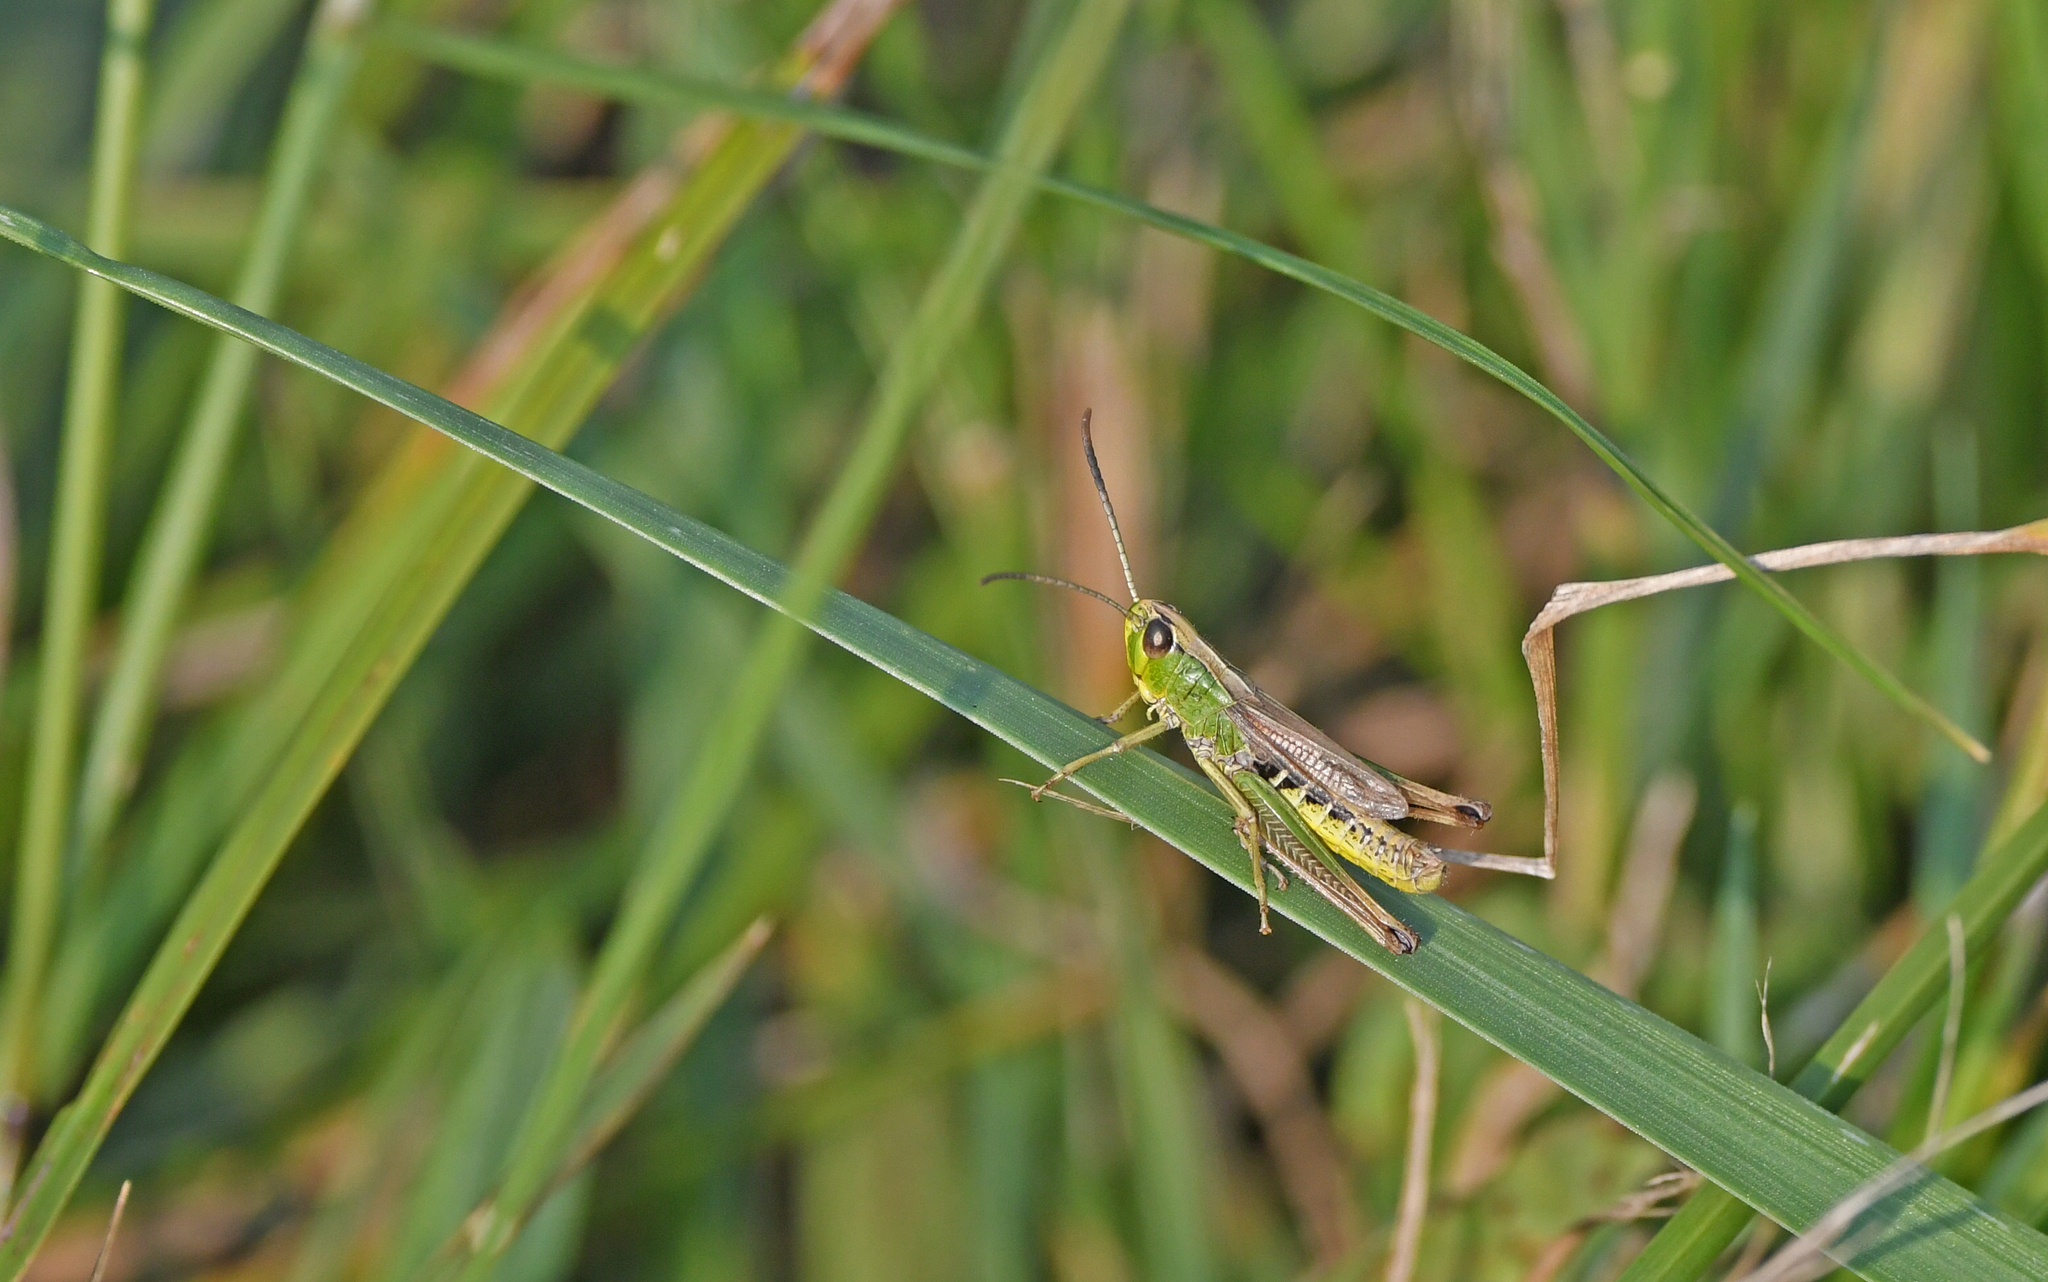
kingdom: Animalia
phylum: Arthropoda
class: Insecta
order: Orthoptera
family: Acrididae
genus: Pseudochorthippus
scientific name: Pseudochorthippus parallelus
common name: Meadow grasshopper
